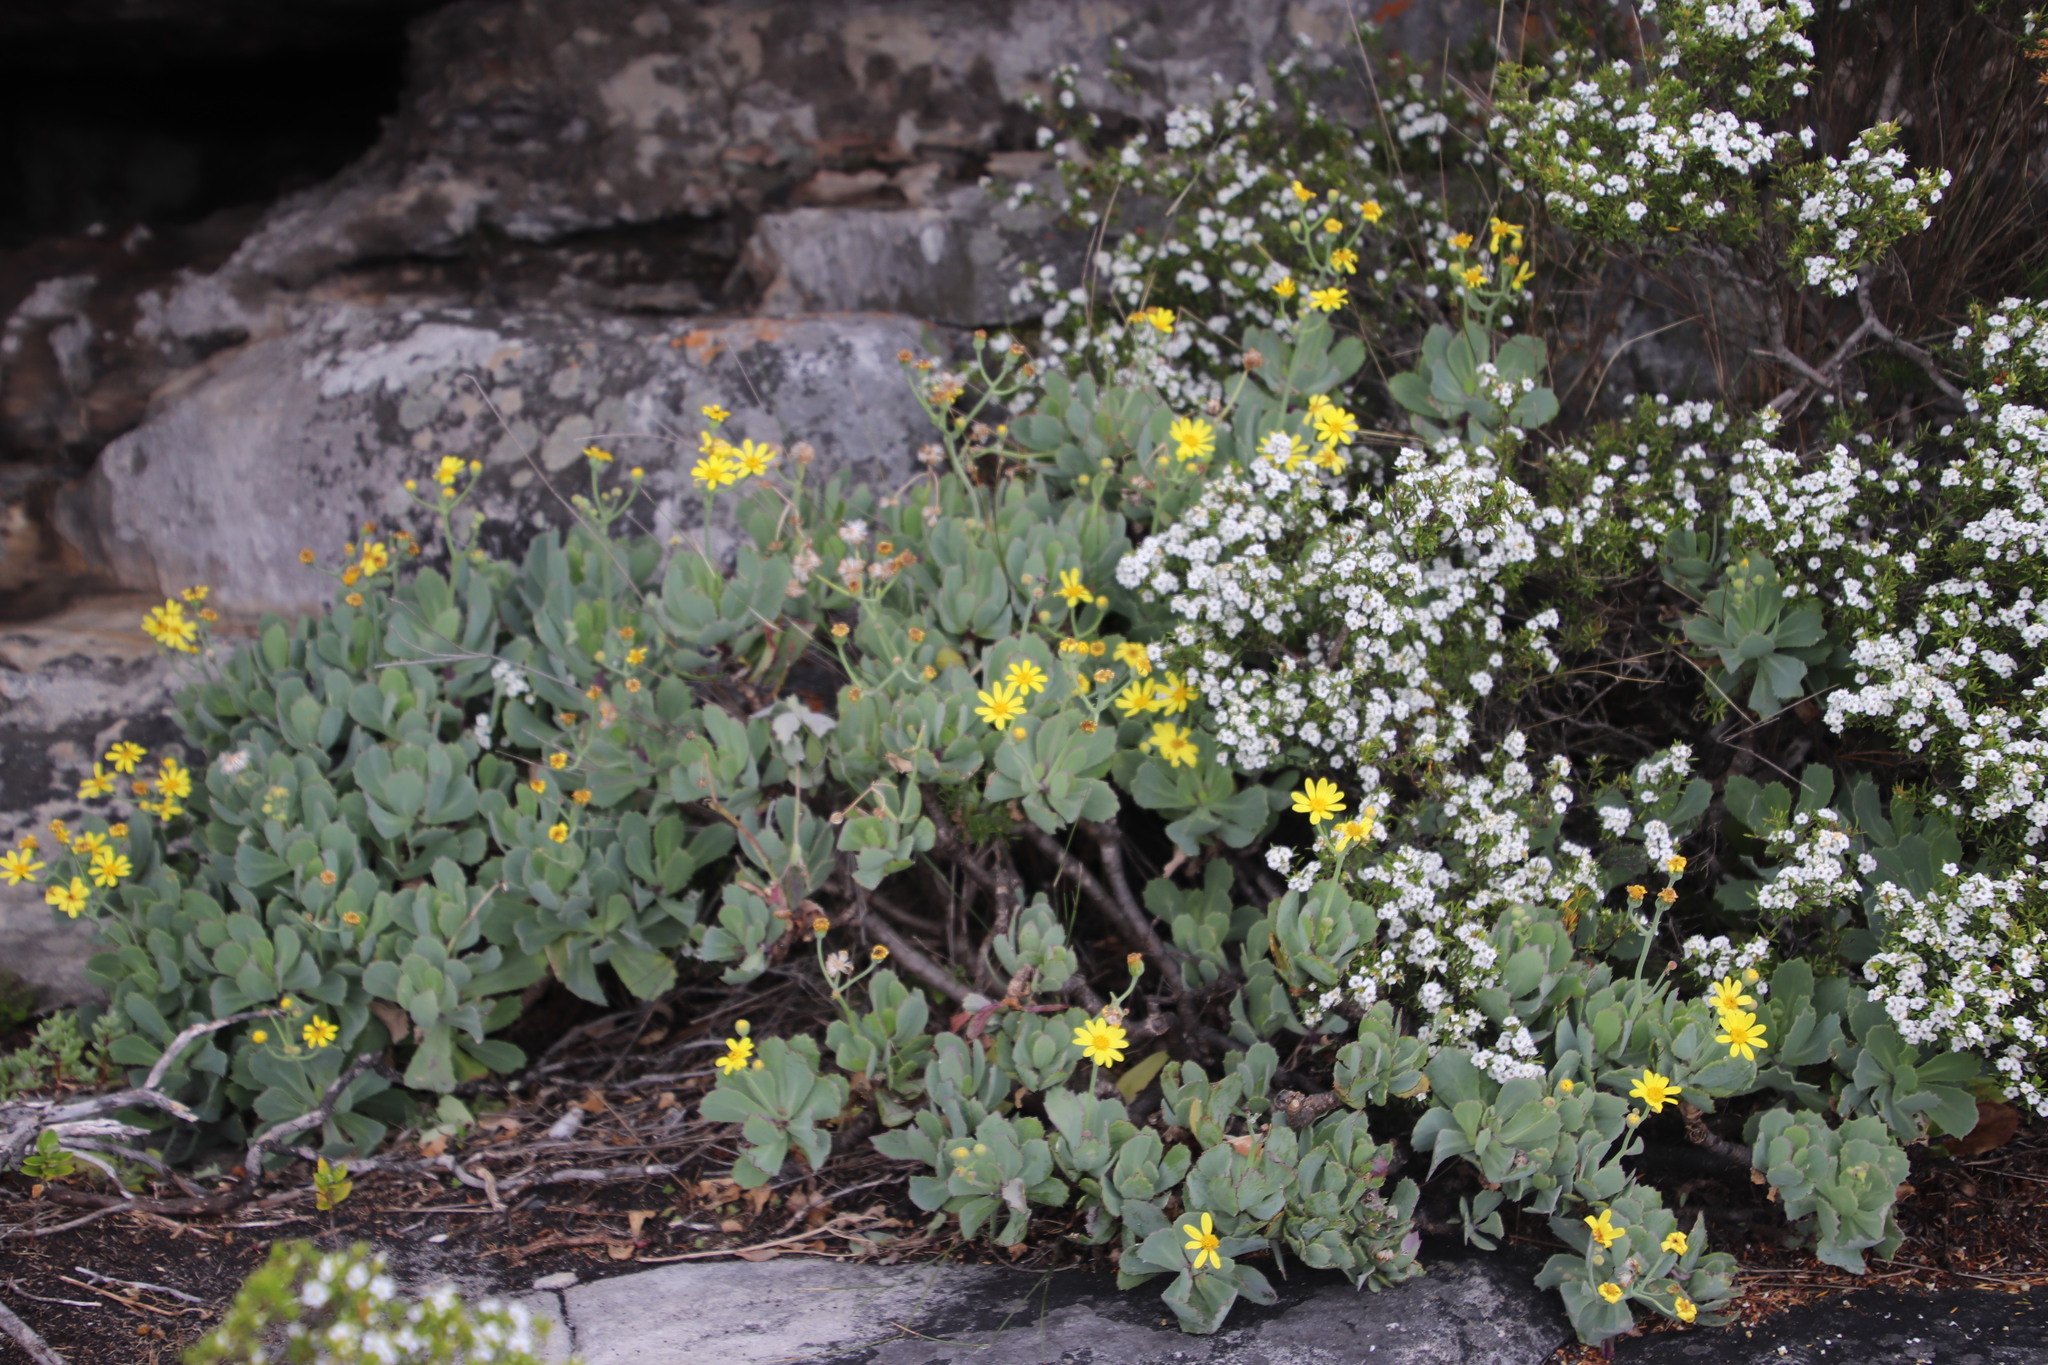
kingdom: Plantae
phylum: Tracheophyta
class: Magnoliopsida
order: Asterales
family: Asteraceae
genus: Othonna
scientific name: Othonna dentata
